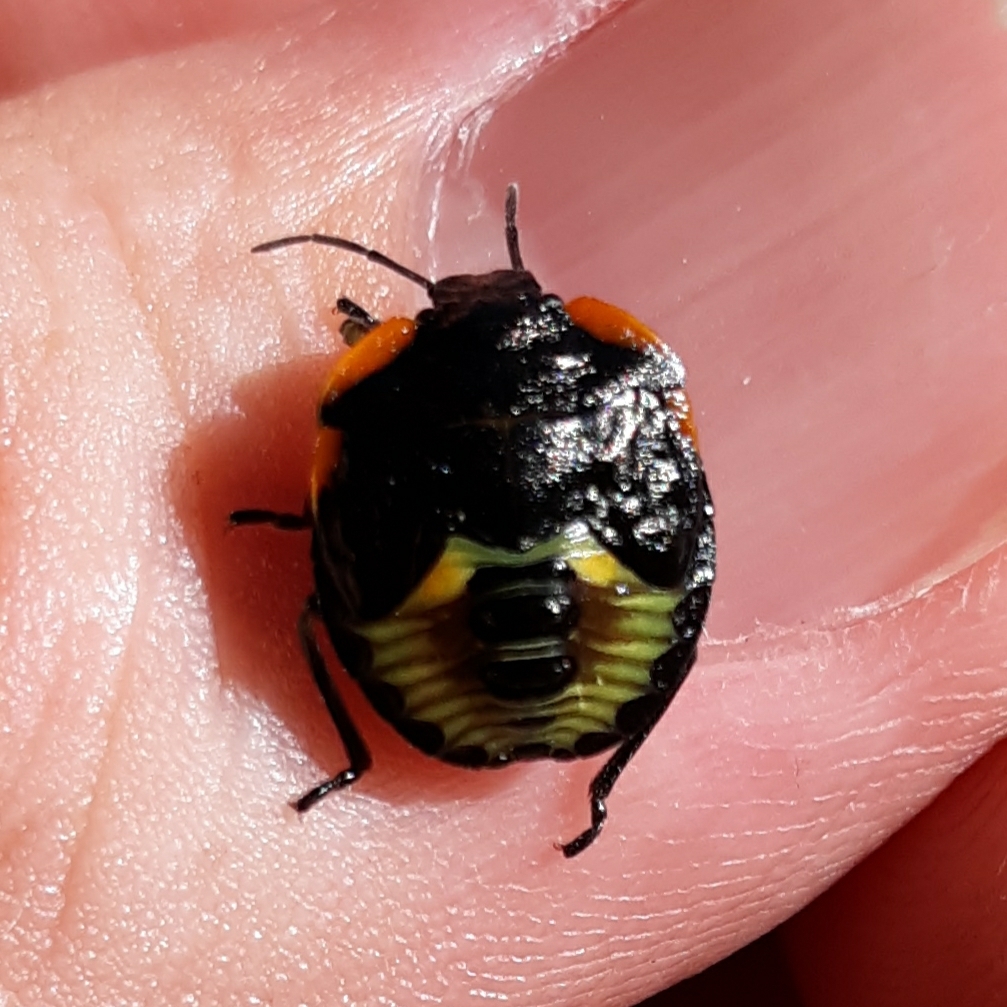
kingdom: Animalia
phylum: Arthropoda
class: Insecta
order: Hemiptera
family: Pentatomidae
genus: Chinavia
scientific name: Chinavia hilaris
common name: Green stink bug
